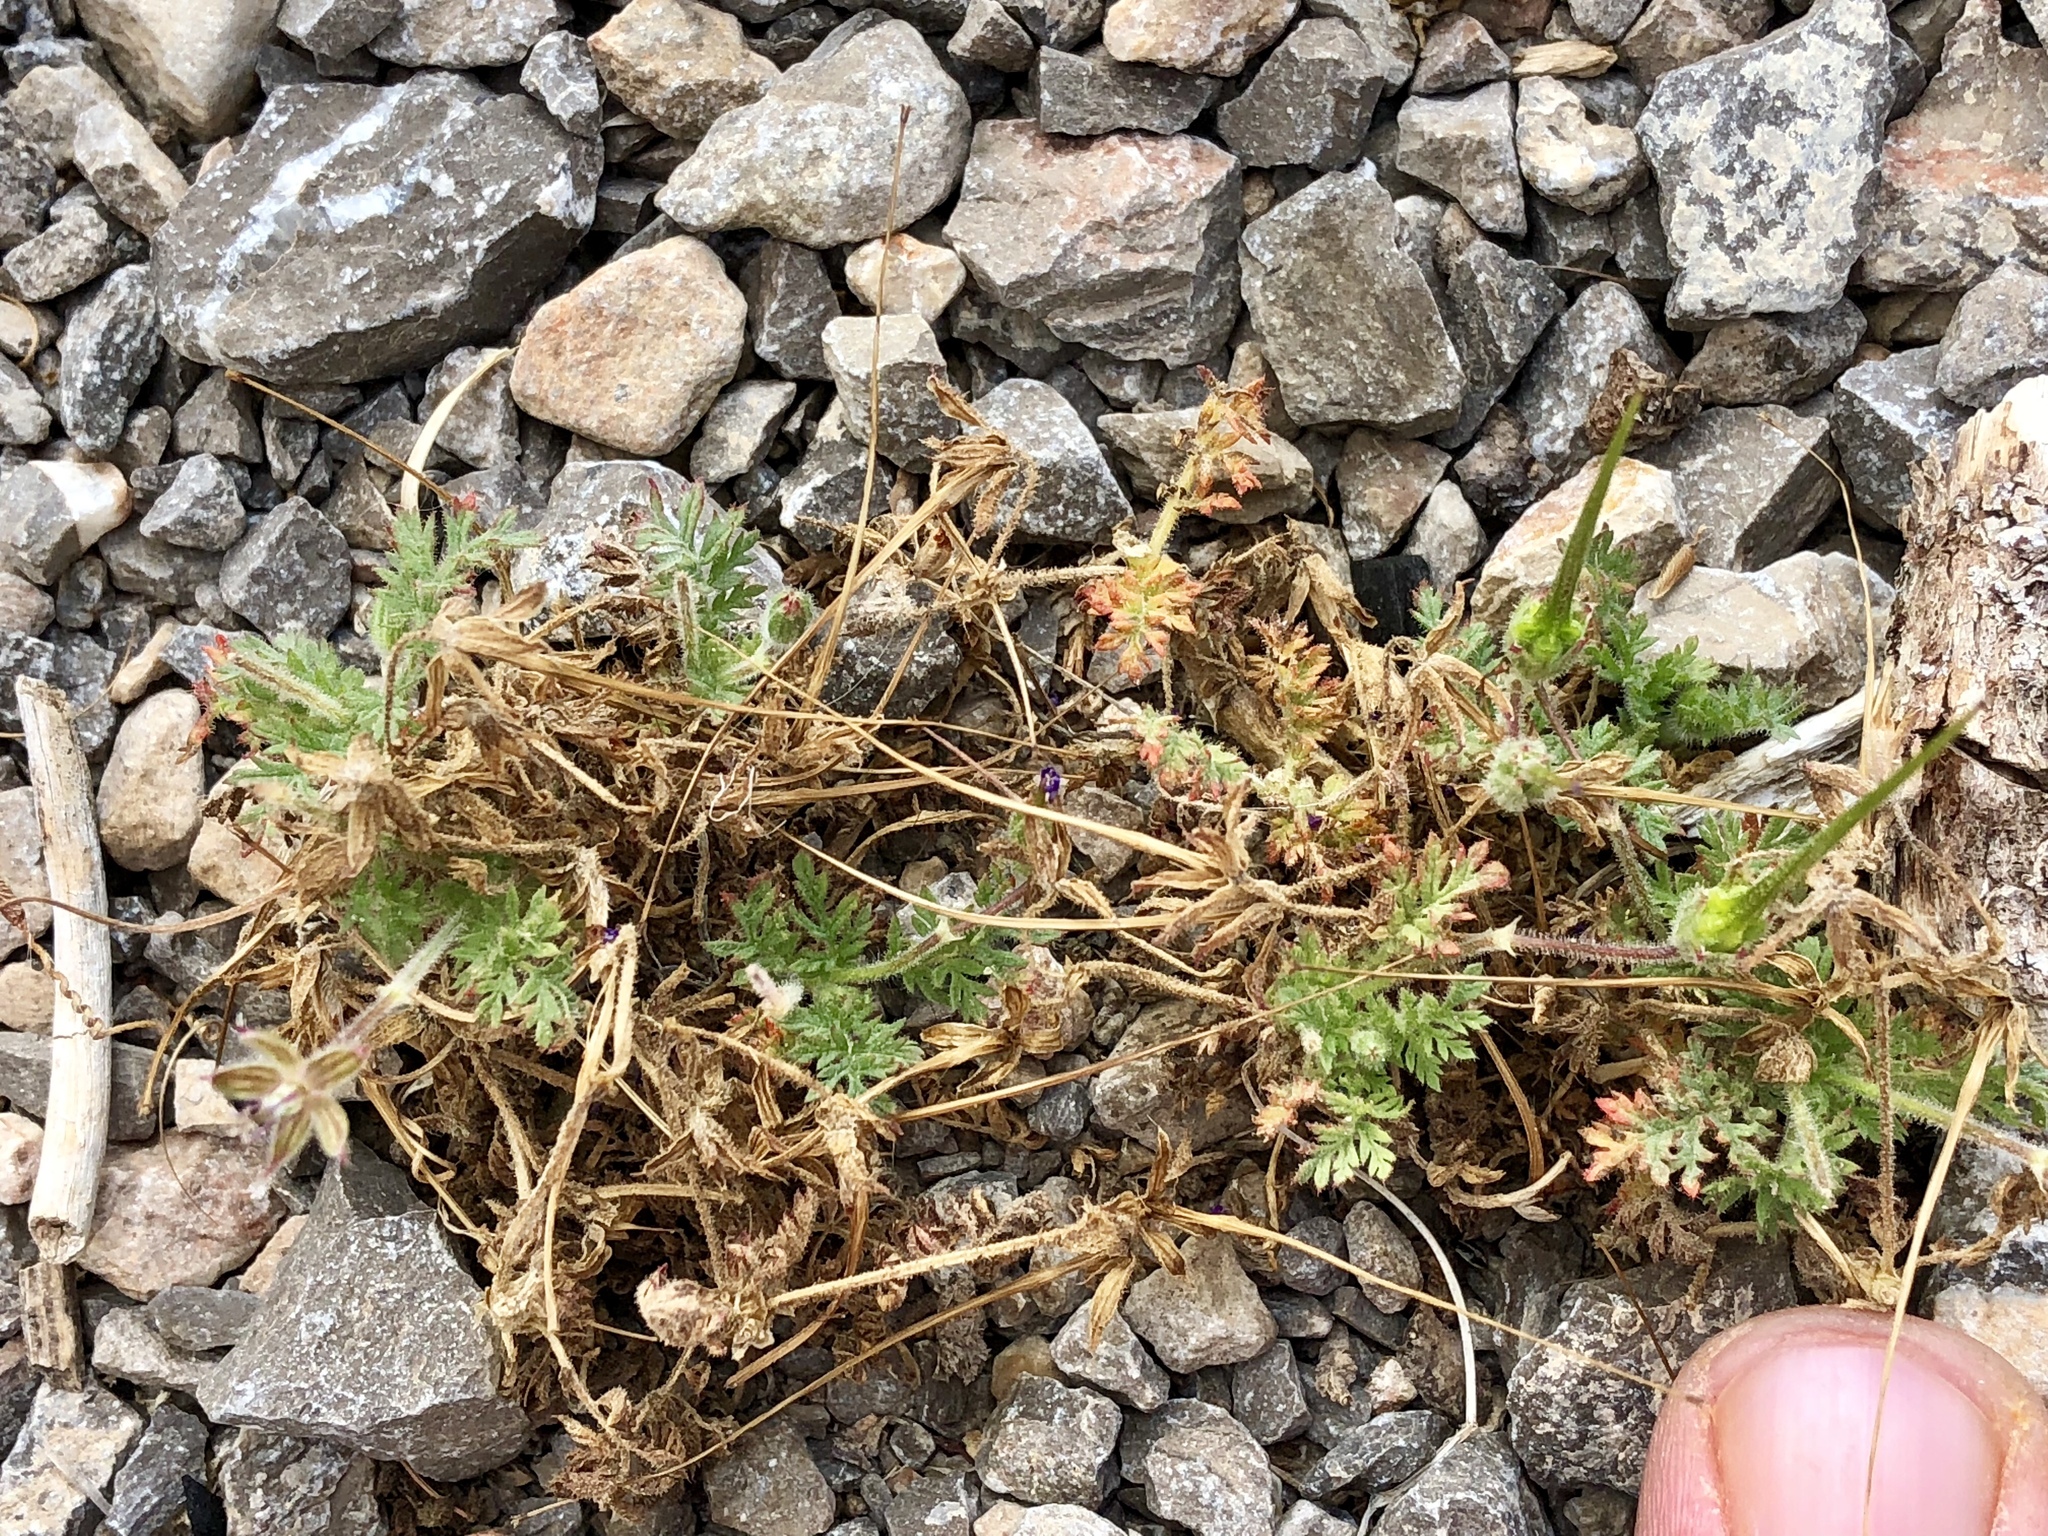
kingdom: Plantae
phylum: Tracheophyta
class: Magnoliopsida
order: Geraniales
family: Geraniaceae
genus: Erodium
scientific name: Erodium cicutarium
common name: Common stork's-bill
